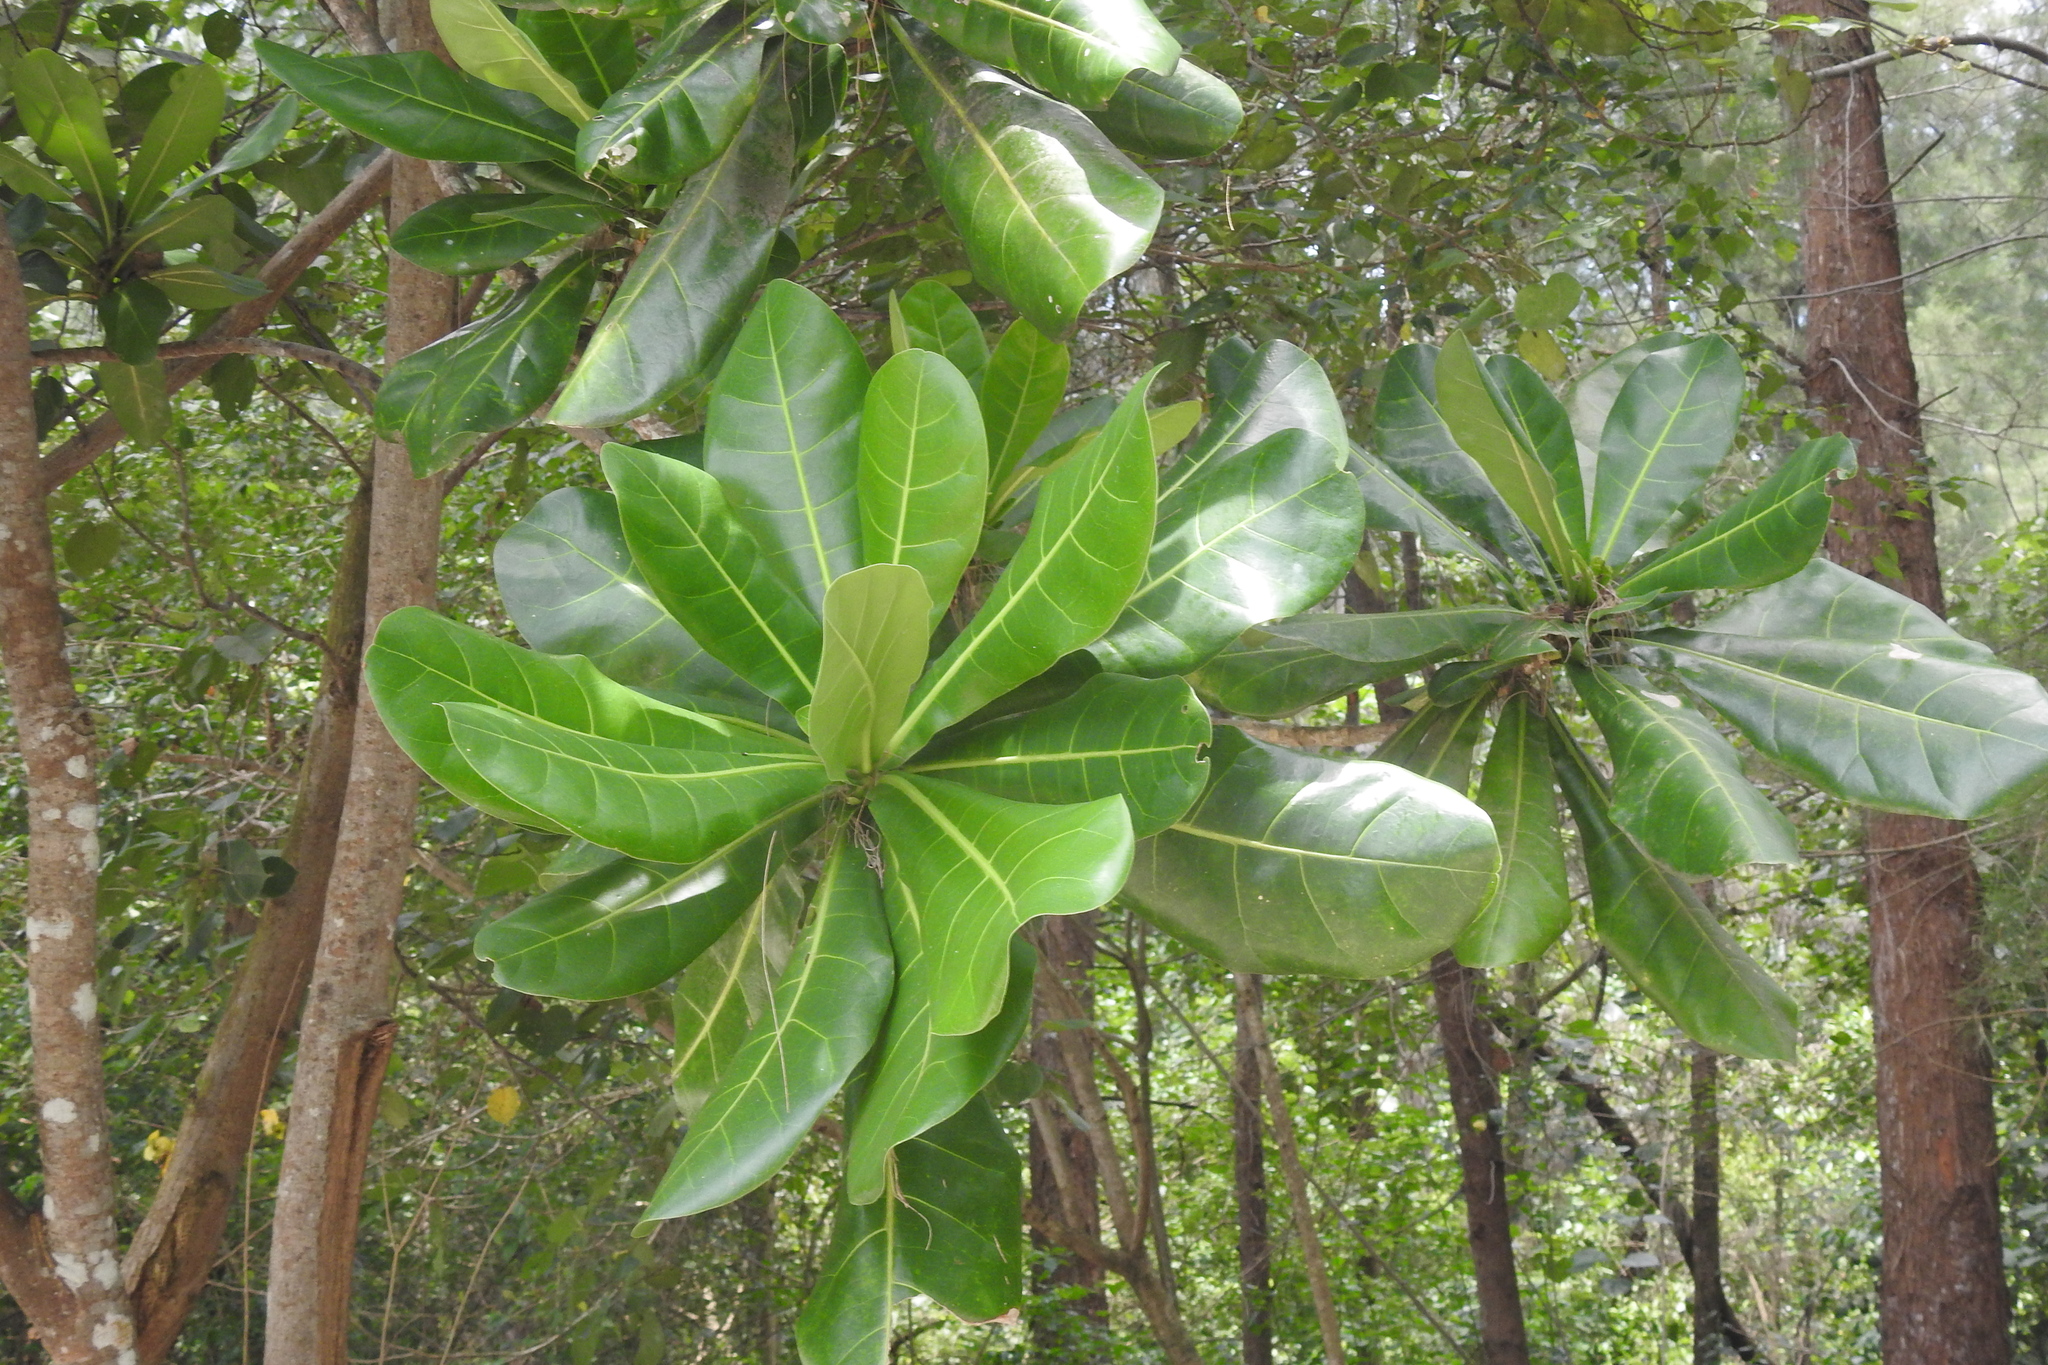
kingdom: Plantae
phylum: Tracheophyta
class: Magnoliopsida
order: Ericales
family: Lecythidaceae
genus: Barringtonia
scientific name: Barringtonia asiatica
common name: Mango-pine
